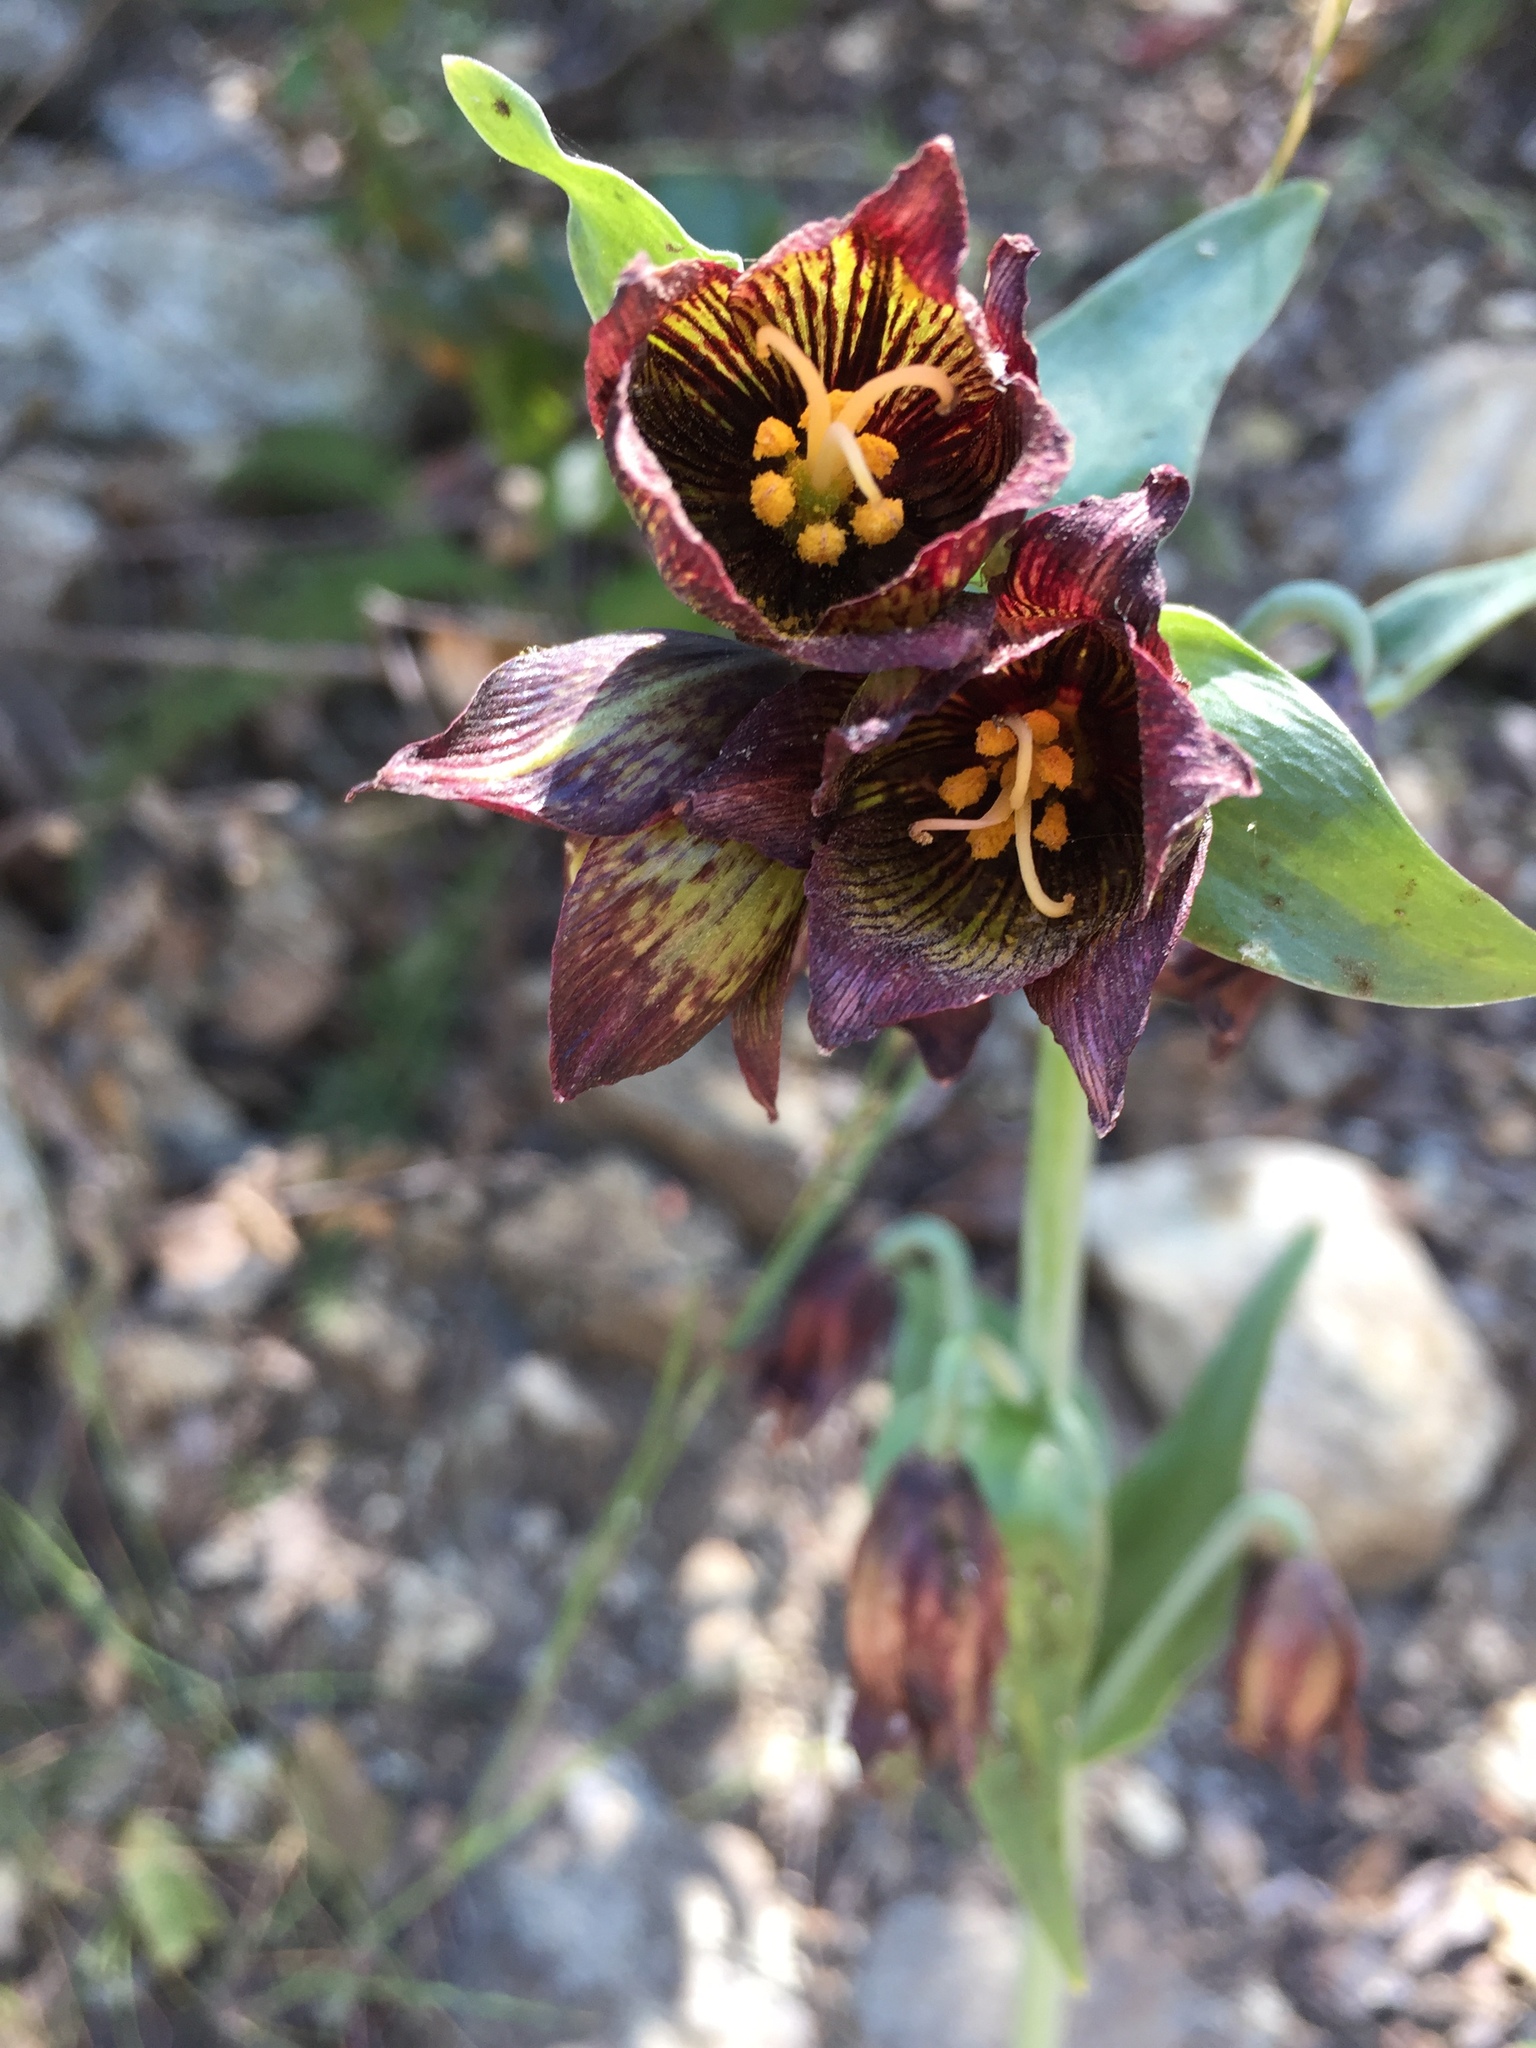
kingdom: Plantae
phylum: Tracheophyta
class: Liliopsida
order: Liliales
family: Liliaceae
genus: Fritillaria
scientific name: Fritillaria biflora
